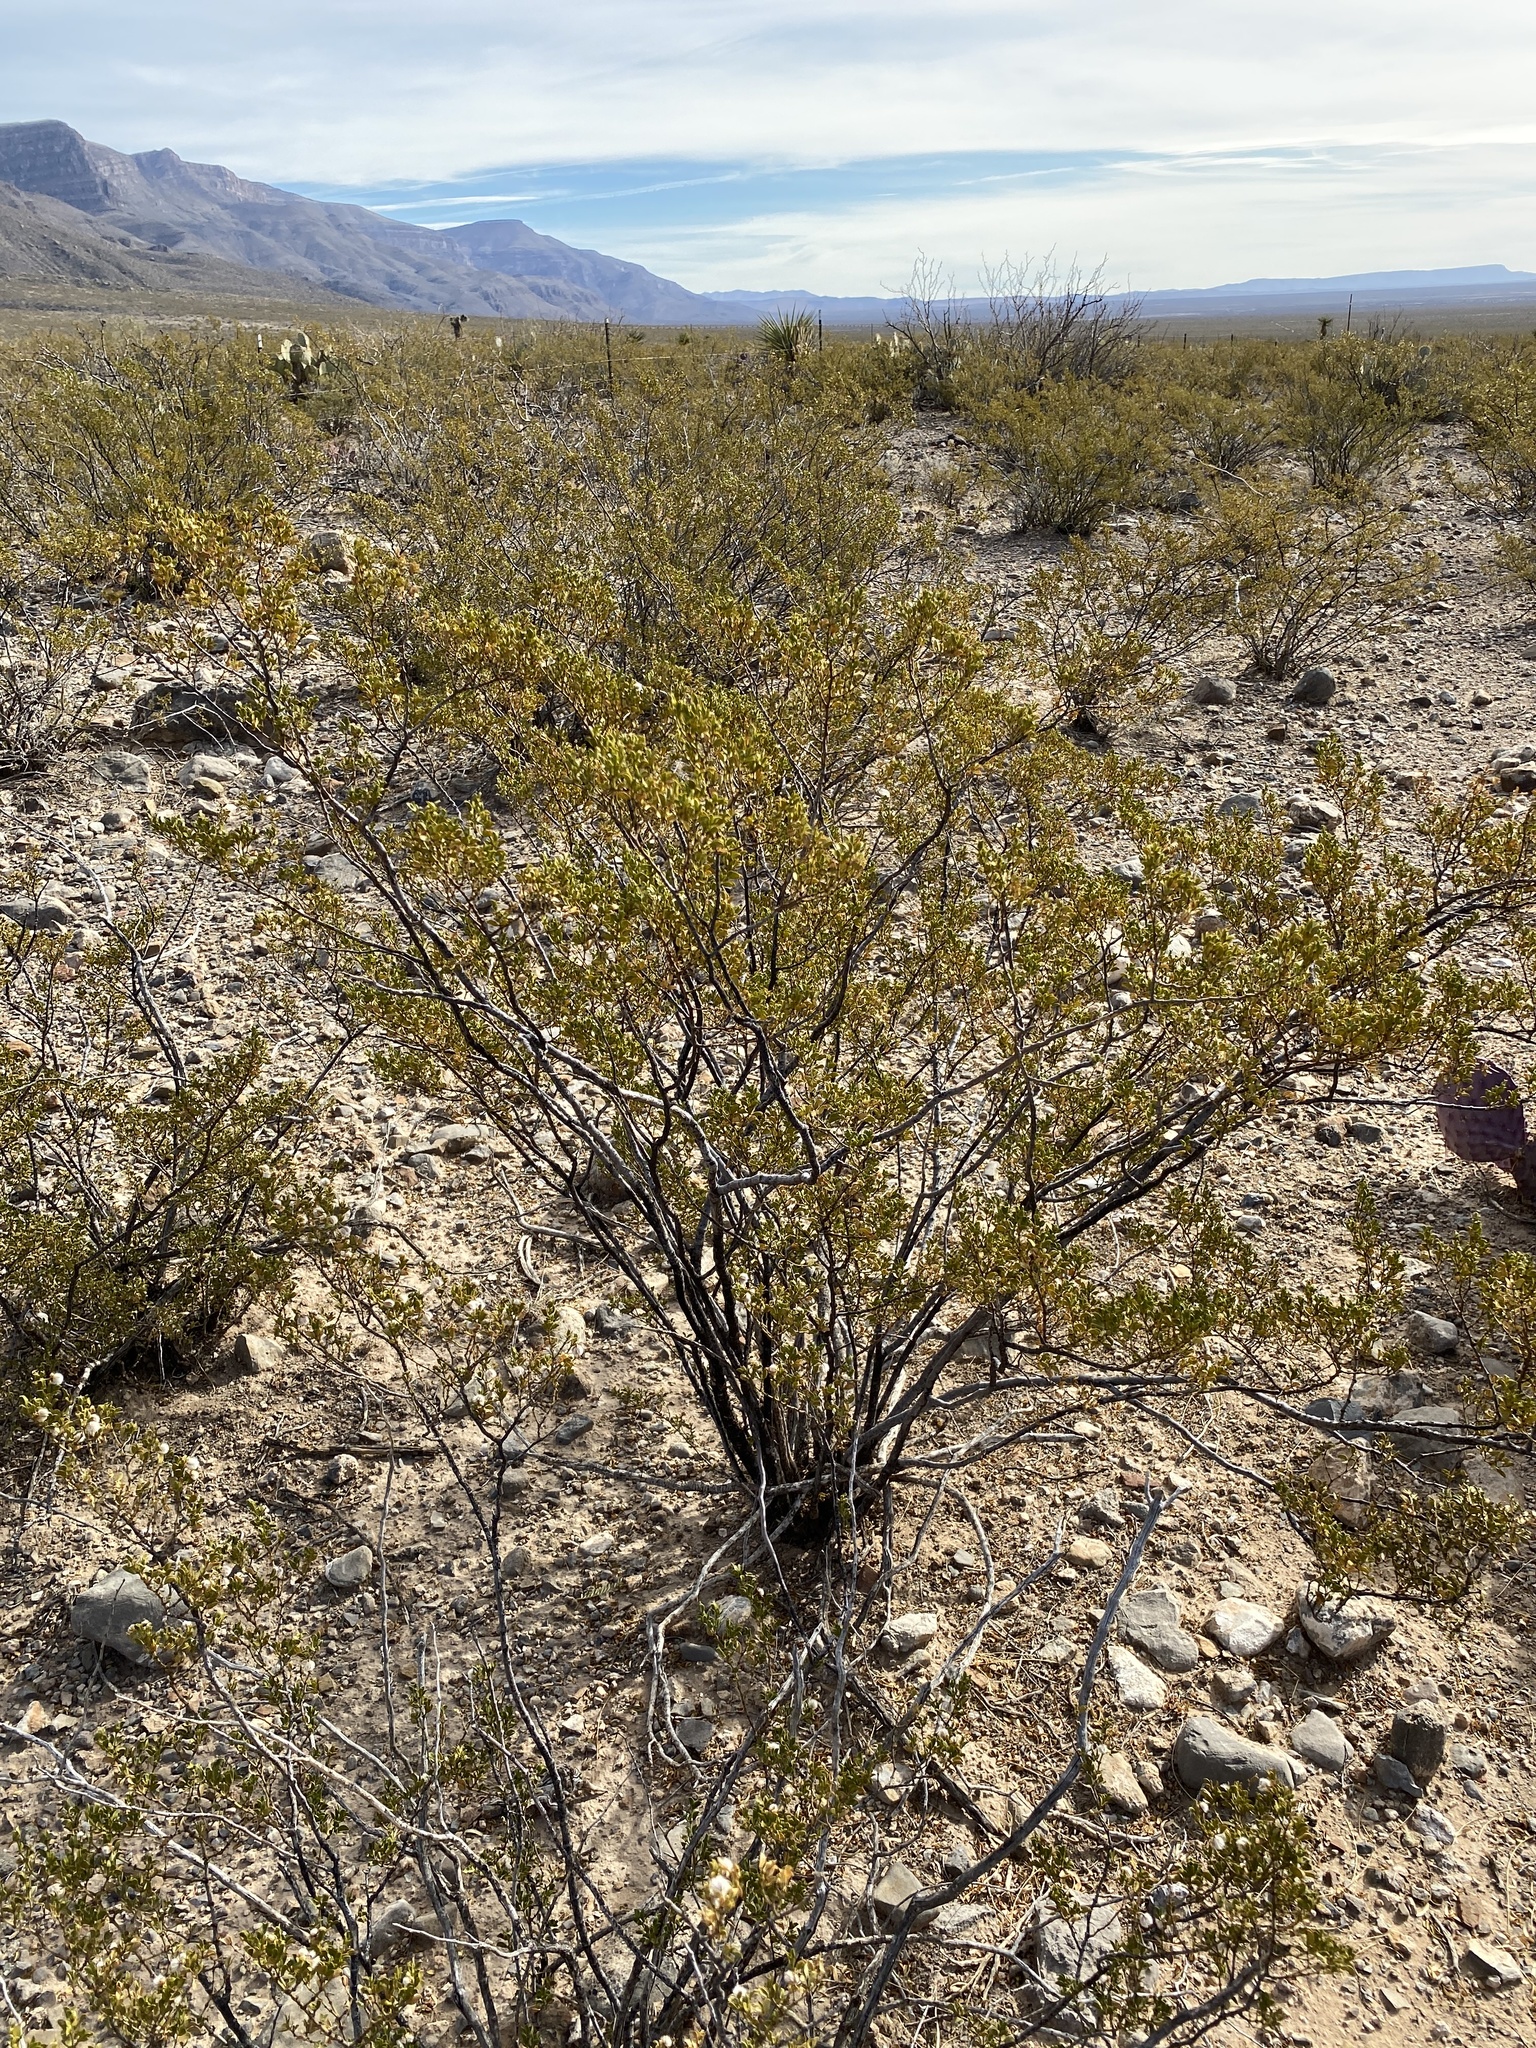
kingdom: Plantae
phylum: Tracheophyta
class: Magnoliopsida
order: Zygophyllales
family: Zygophyllaceae
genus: Larrea
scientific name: Larrea tridentata
